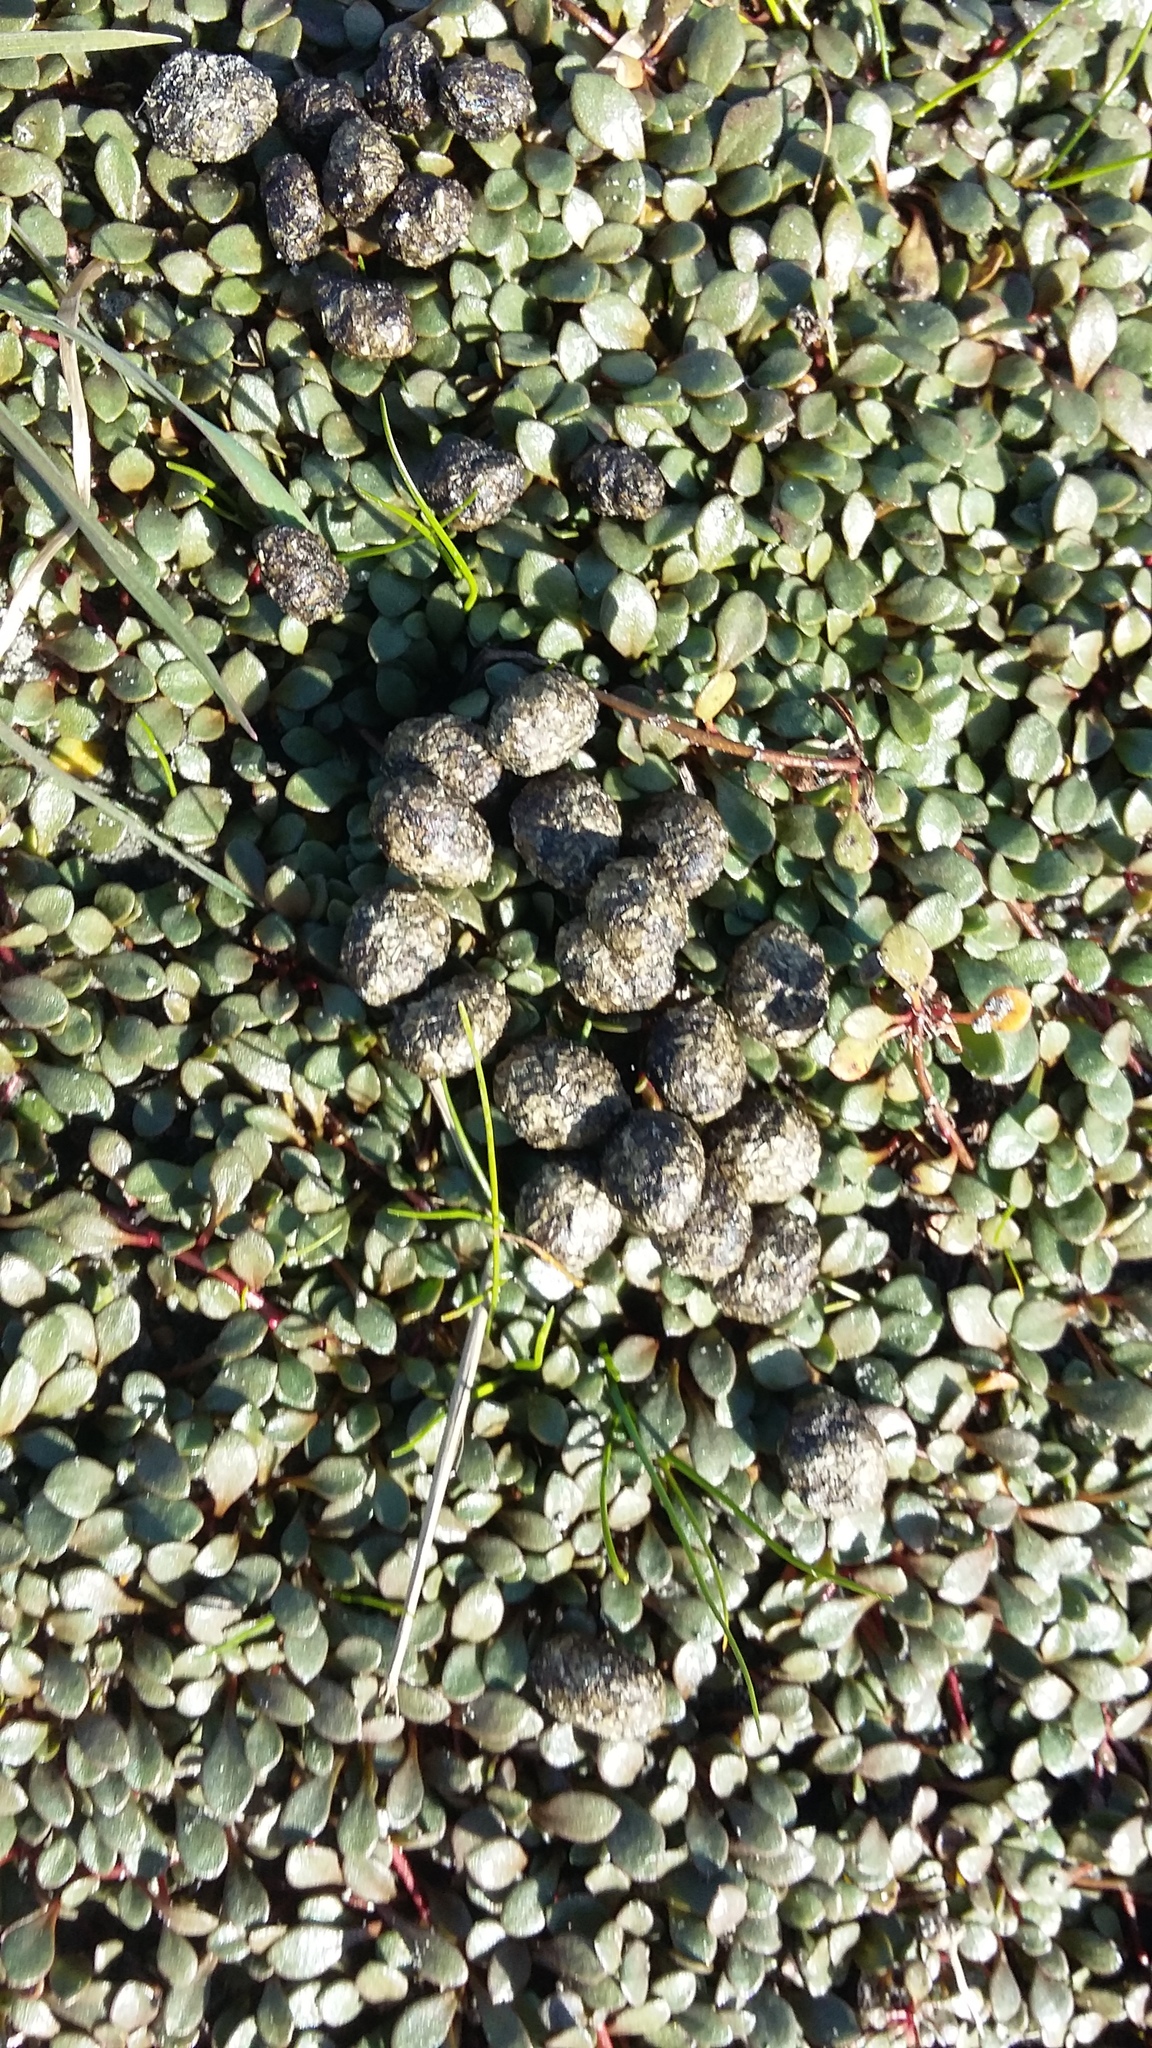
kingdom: Animalia
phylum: Chordata
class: Mammalia
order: Lagomorpha
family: Leporidae
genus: Oryctolagus
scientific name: Oryctolagus cuniculus
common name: European rabbit
